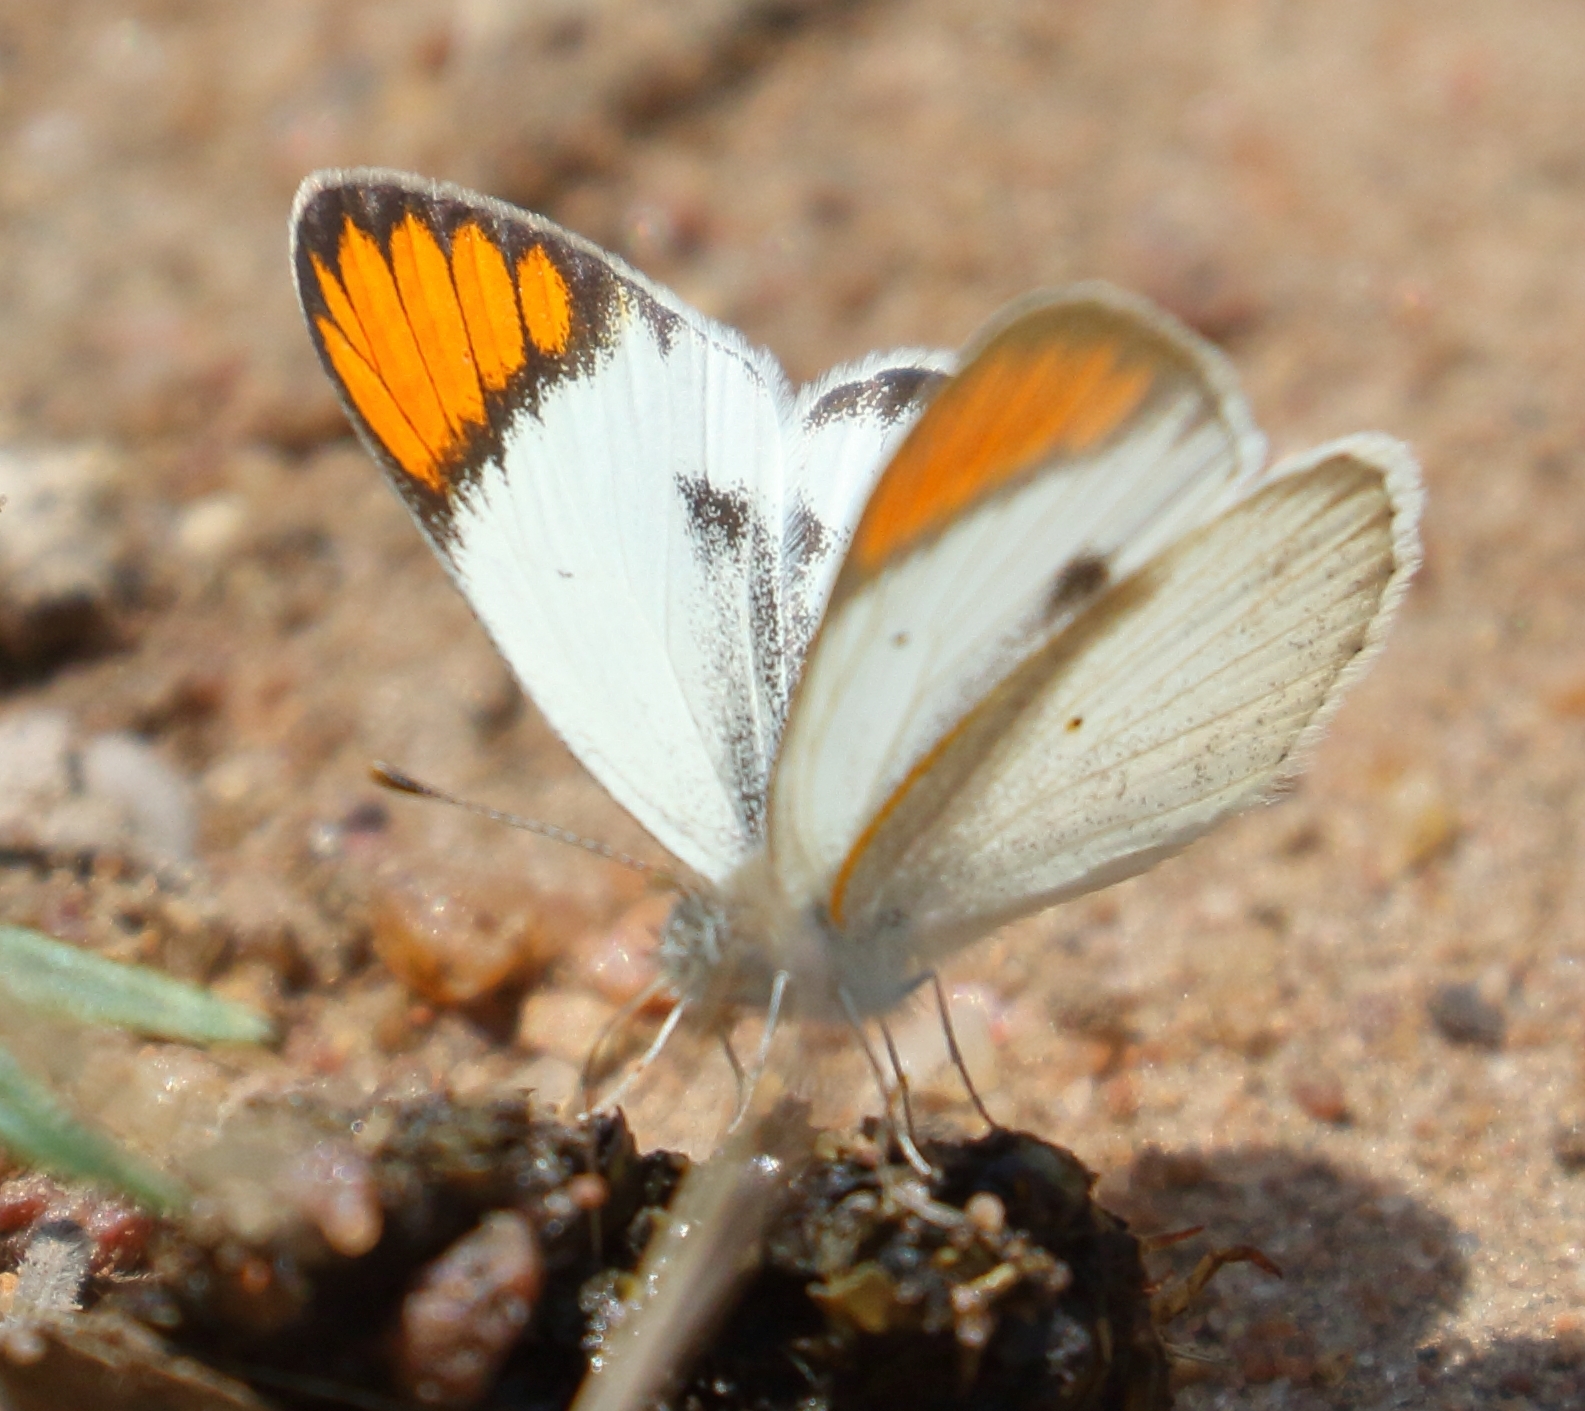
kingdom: Animalia
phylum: Arthropoda
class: Insecta
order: Lepidoptera
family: Pieridae
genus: Colotis
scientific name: Colotis pallene
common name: Bushveld orange tip
